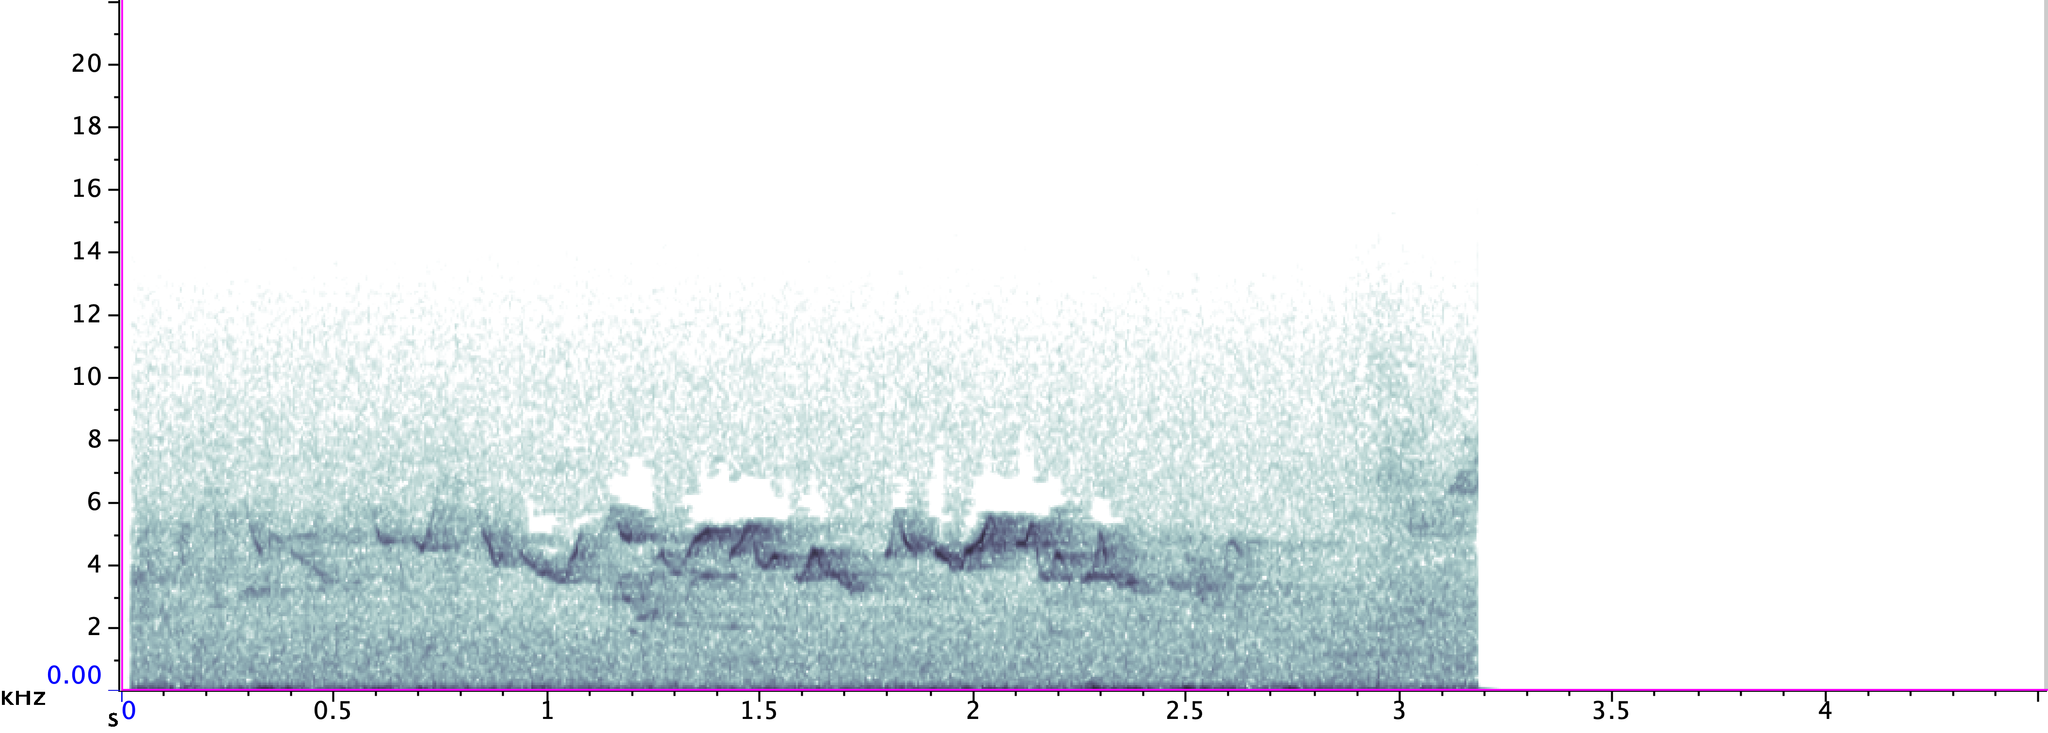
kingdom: Animalia
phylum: Chordata
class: Aves
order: Passeriformes
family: Parulidae
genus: Geothlypis
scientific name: Geothlypis trichas
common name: Common yellowthroat
